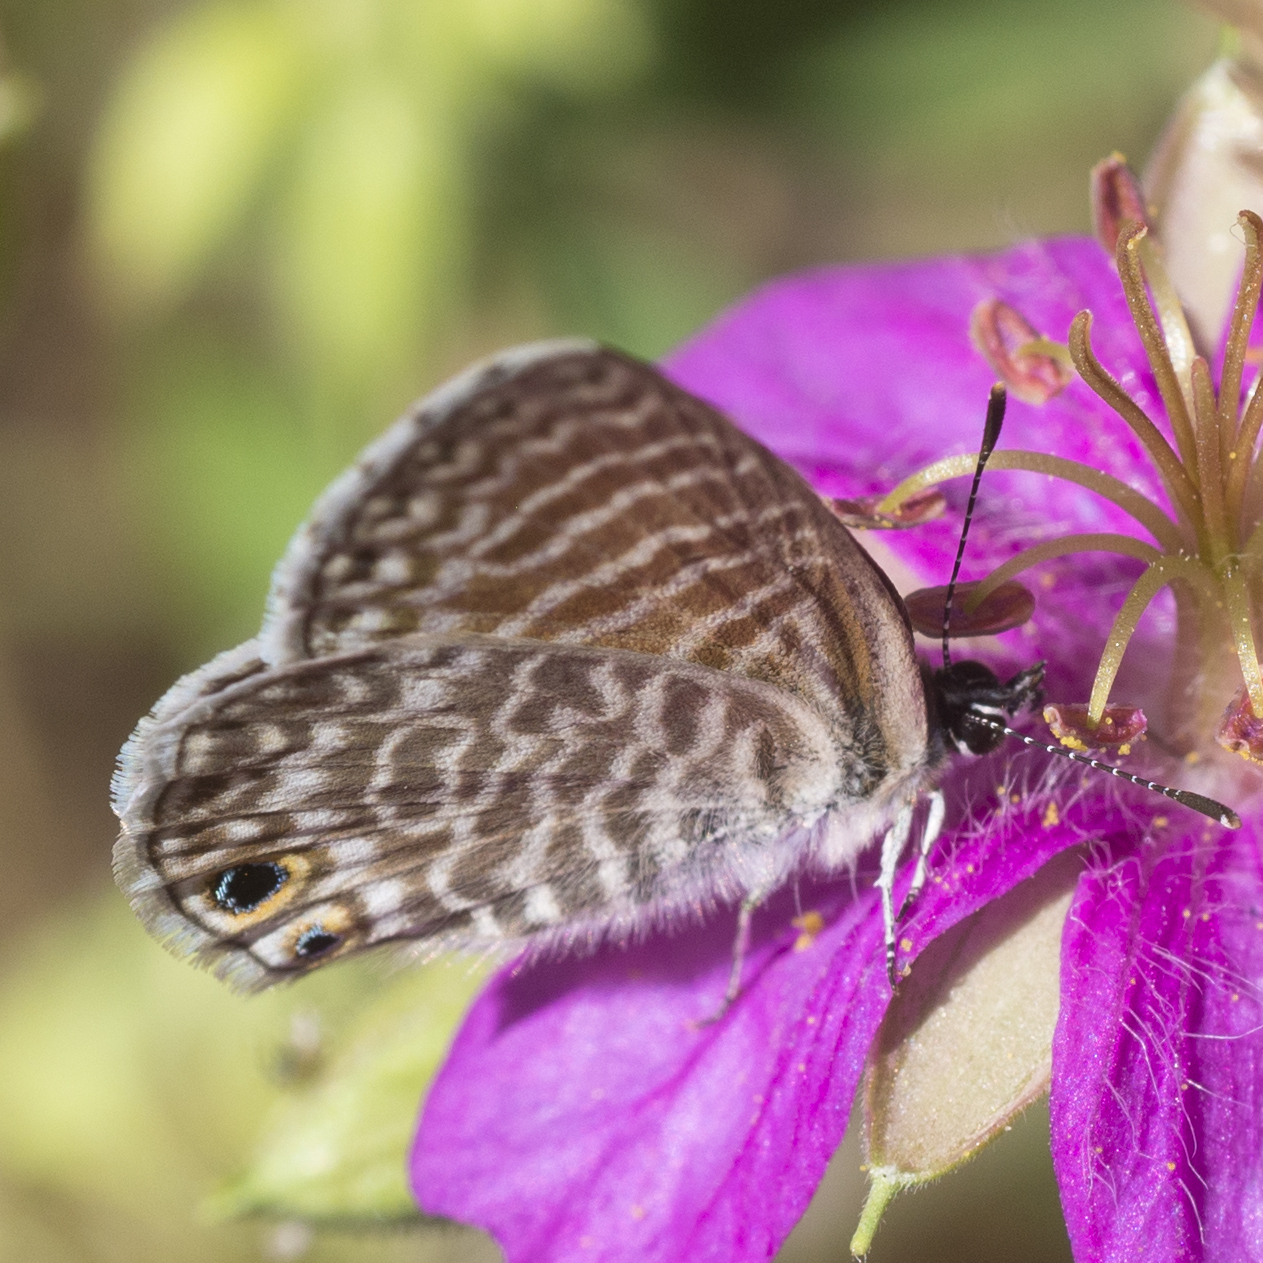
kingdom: Animalia
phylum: Arthropoda
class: Insecta
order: Lepidoptera
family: Lycaenidae
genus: Leptotes
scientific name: Leptotes marina
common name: Marine blue
